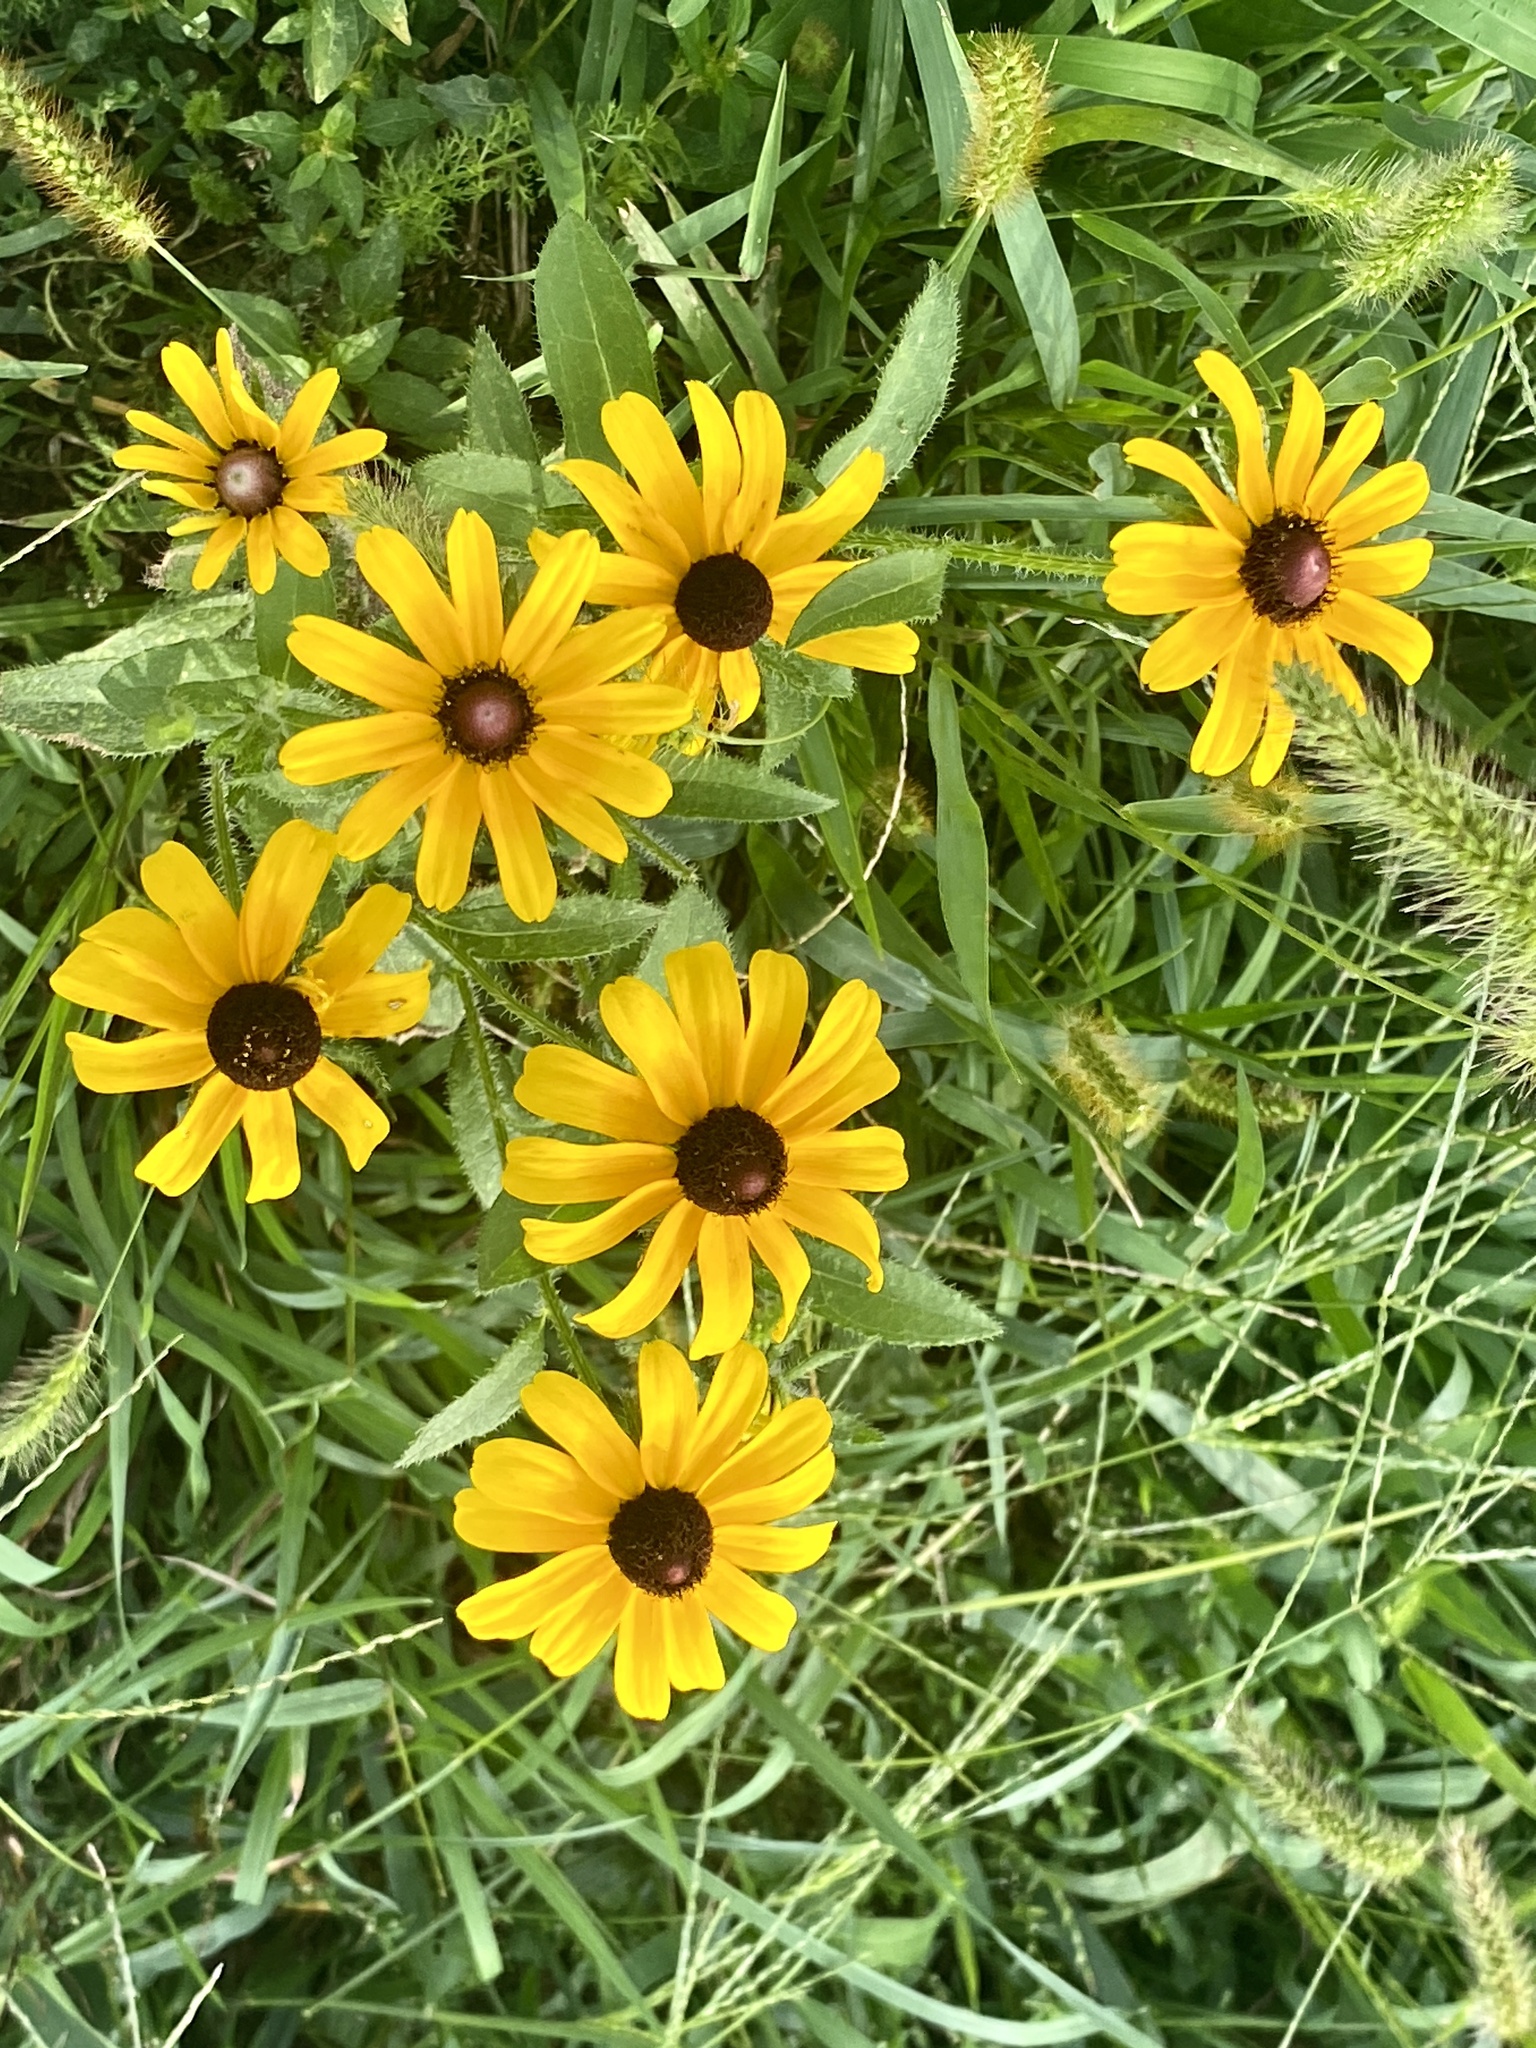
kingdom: Plantae
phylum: Tracheophyta
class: Magnoliopsida
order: Asterales
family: Asteraceae
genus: Rudbeckia
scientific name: Rudbeckia hirta
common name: Black-eyed-susan
